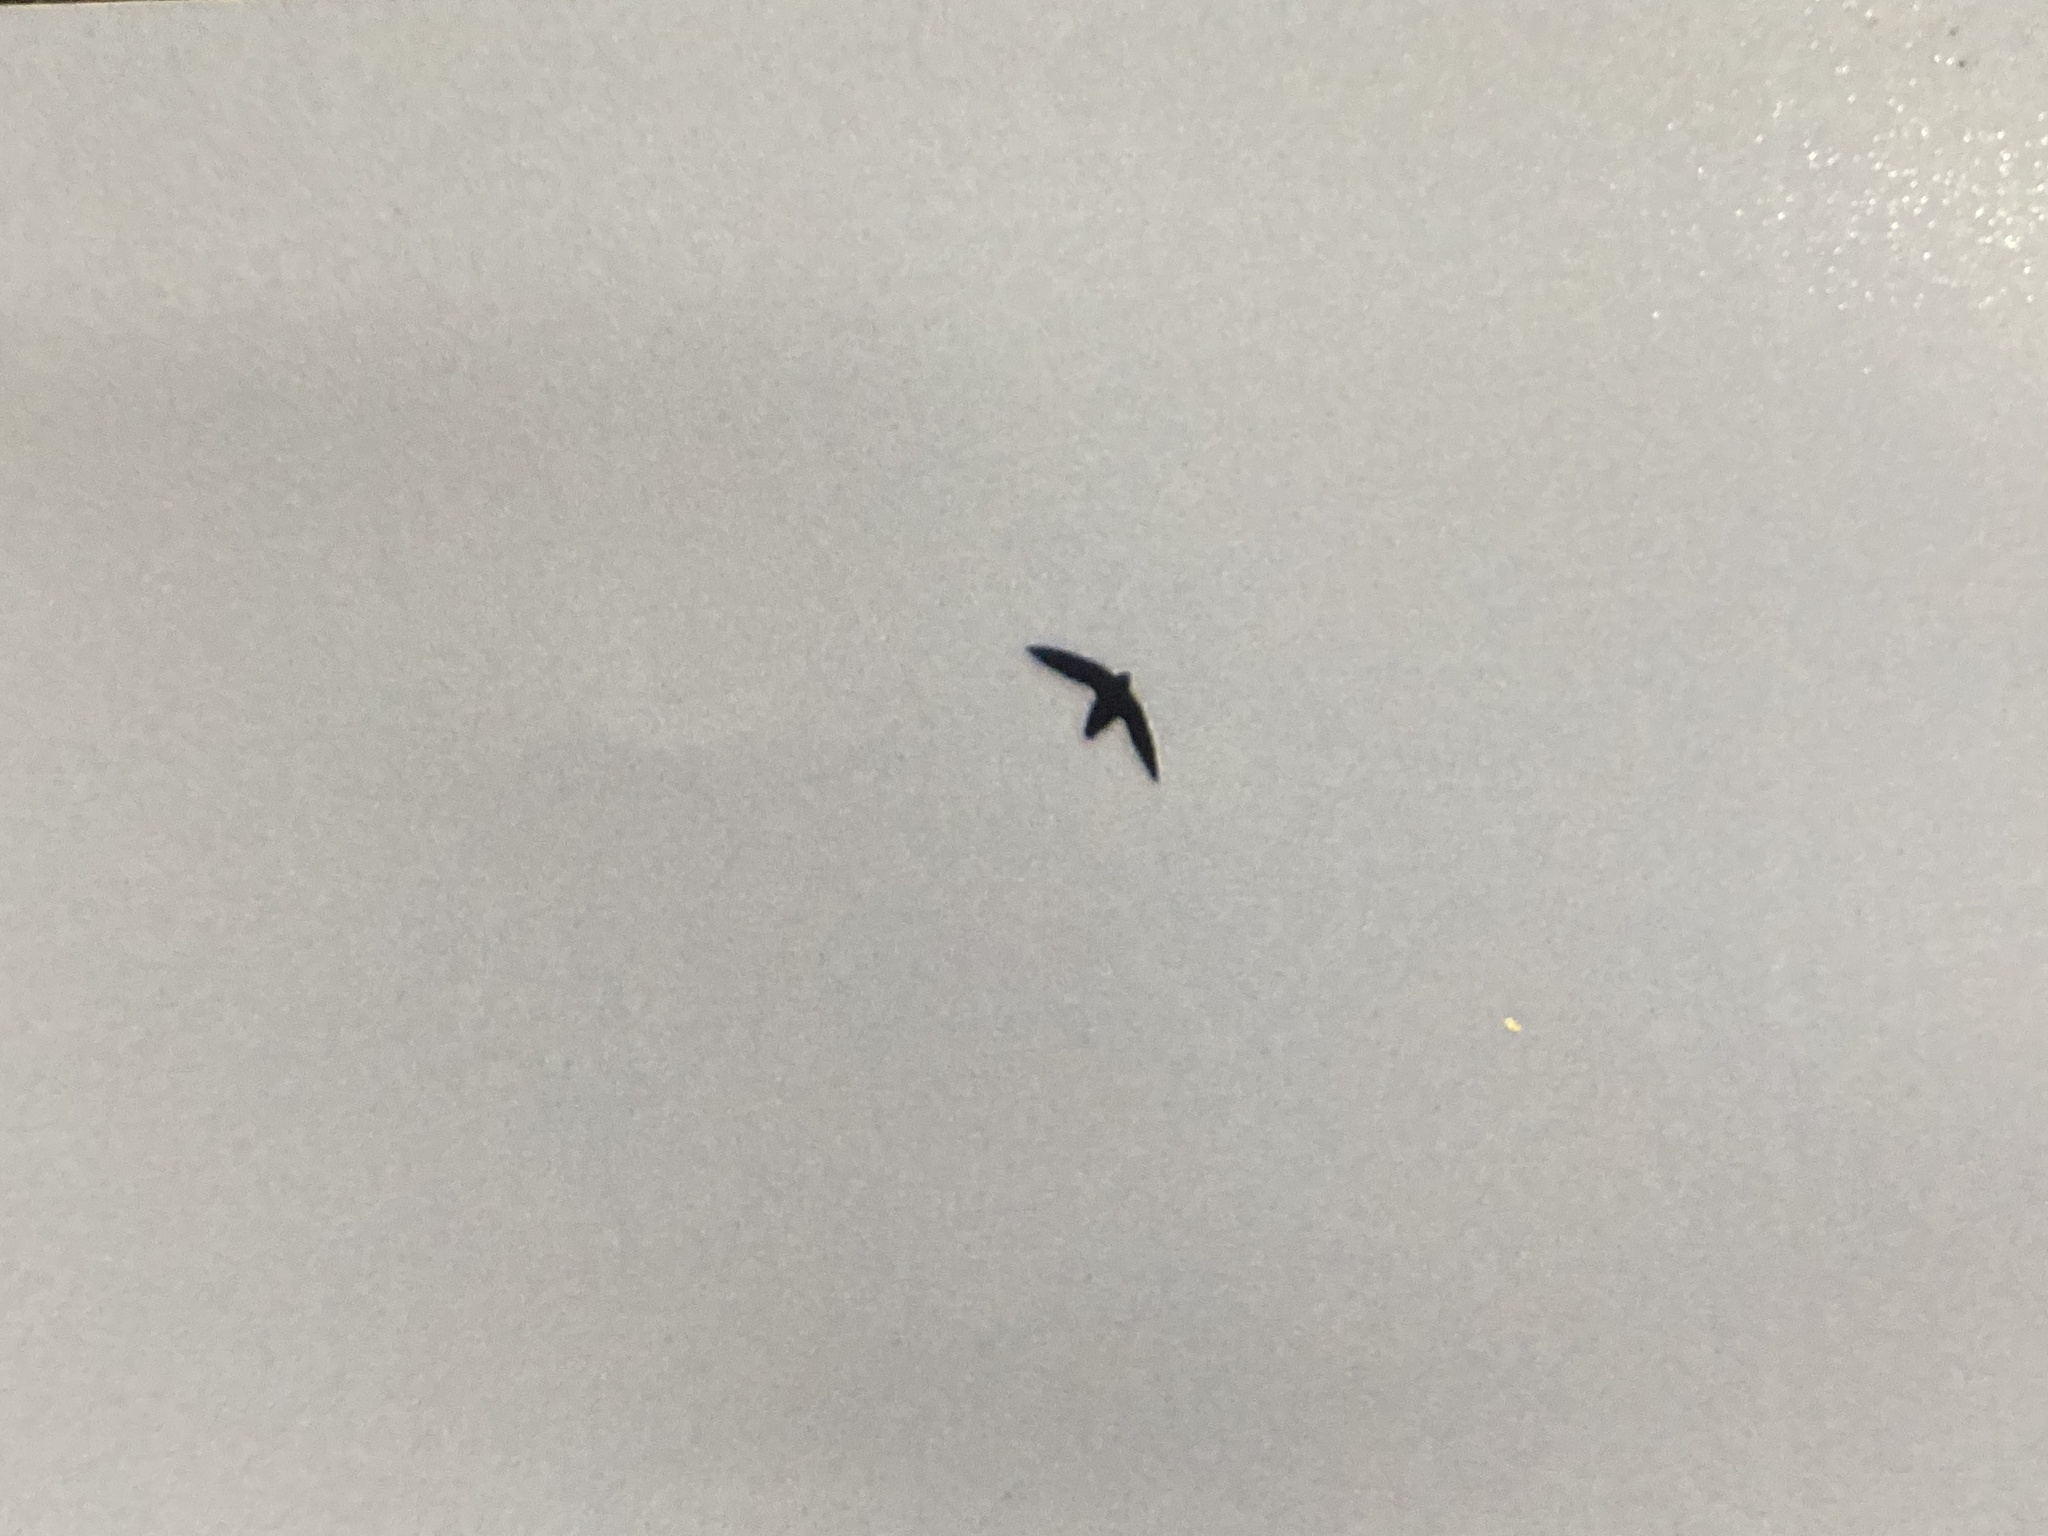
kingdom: Animalia
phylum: Chordata
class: Aves
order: Apodiformes
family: Apodidae
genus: Chaetura
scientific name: Chaetura pelagica
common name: Chimney swift
